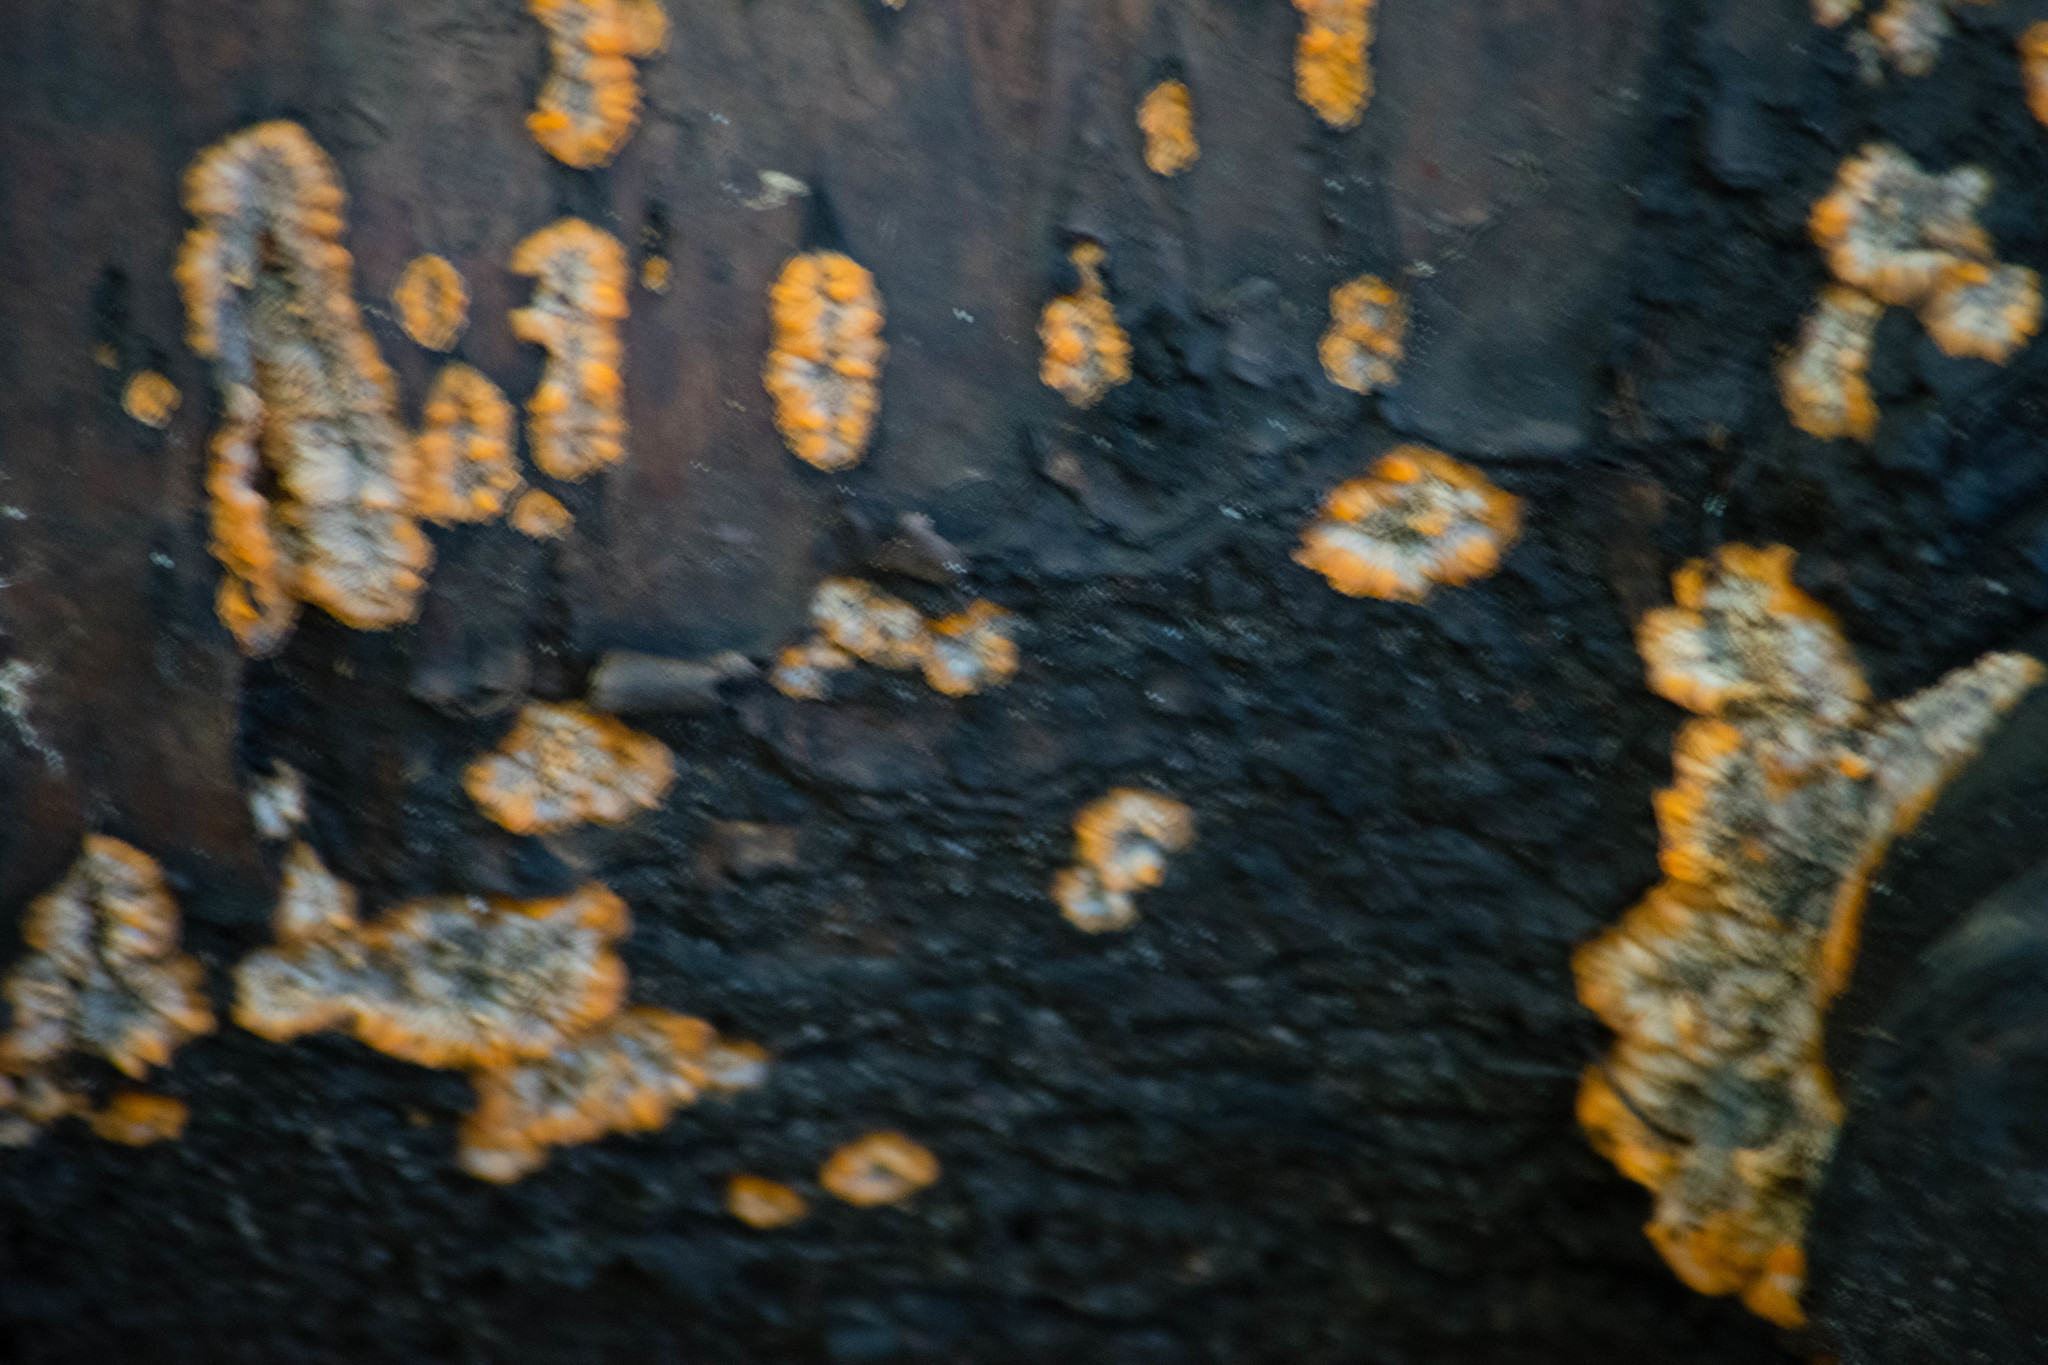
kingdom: Fungi
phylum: Basidiomycota
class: Agaricomycetes
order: Polyporales
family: Meruliaceae
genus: Phlebia
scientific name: Phlebia radiata
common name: Wrinkled crust
